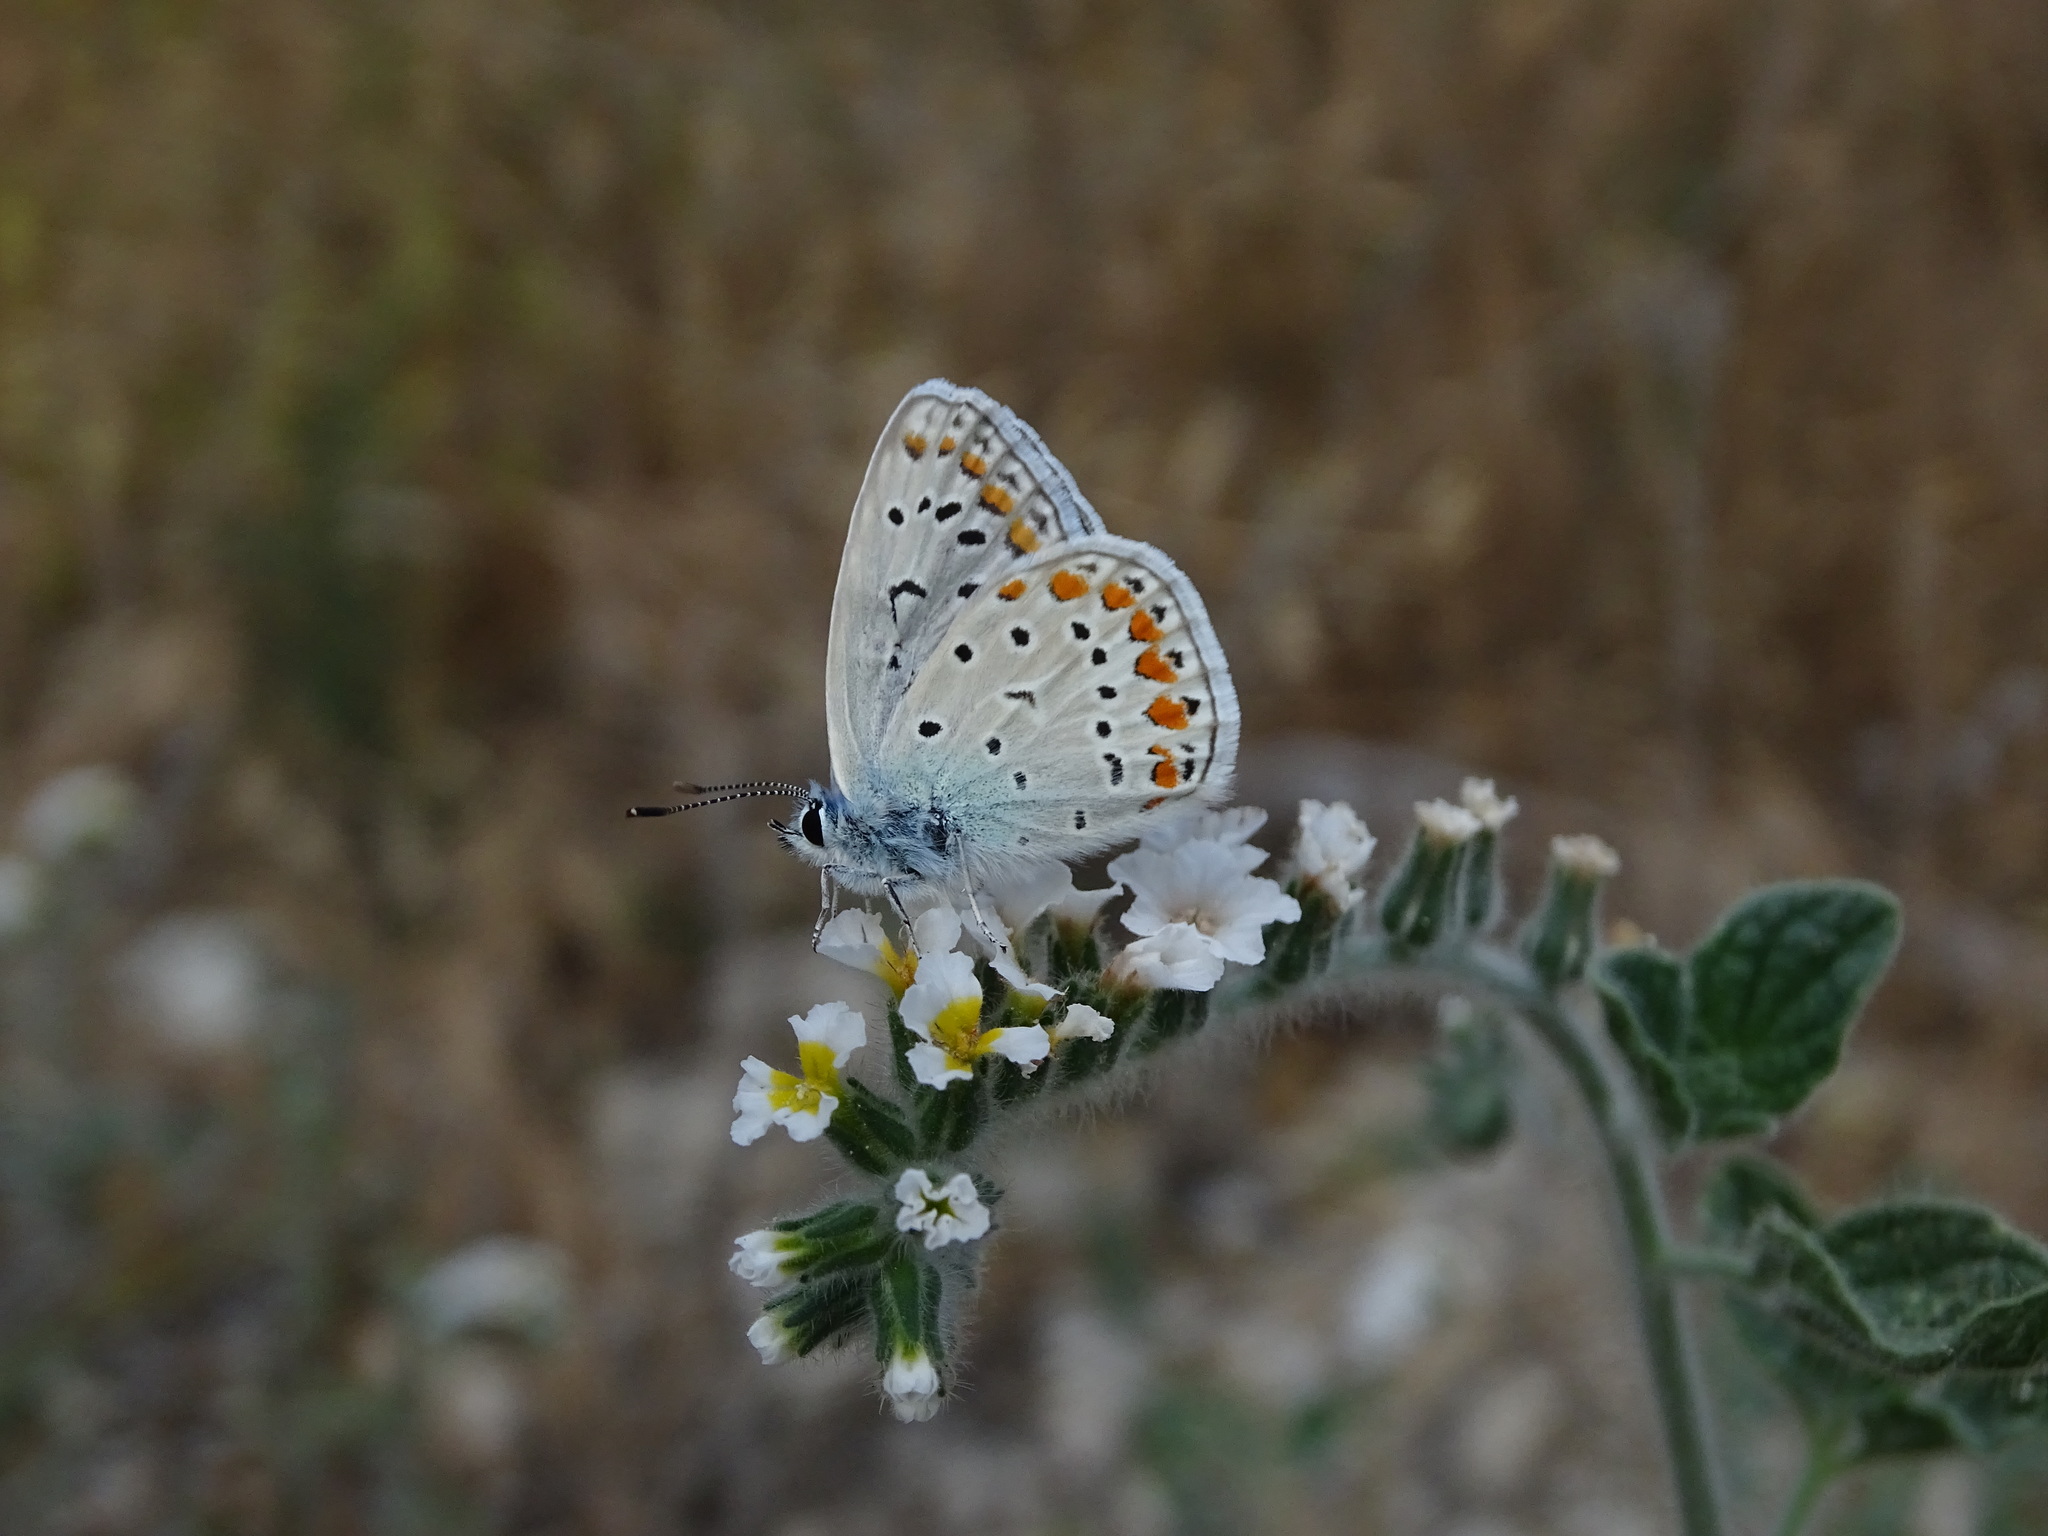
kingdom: Animalia
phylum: Arthropoda
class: Insecta
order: Lepidoptera
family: Lycaenidae
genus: Polyommatus
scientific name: Polyommatus icarus
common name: Common blue
